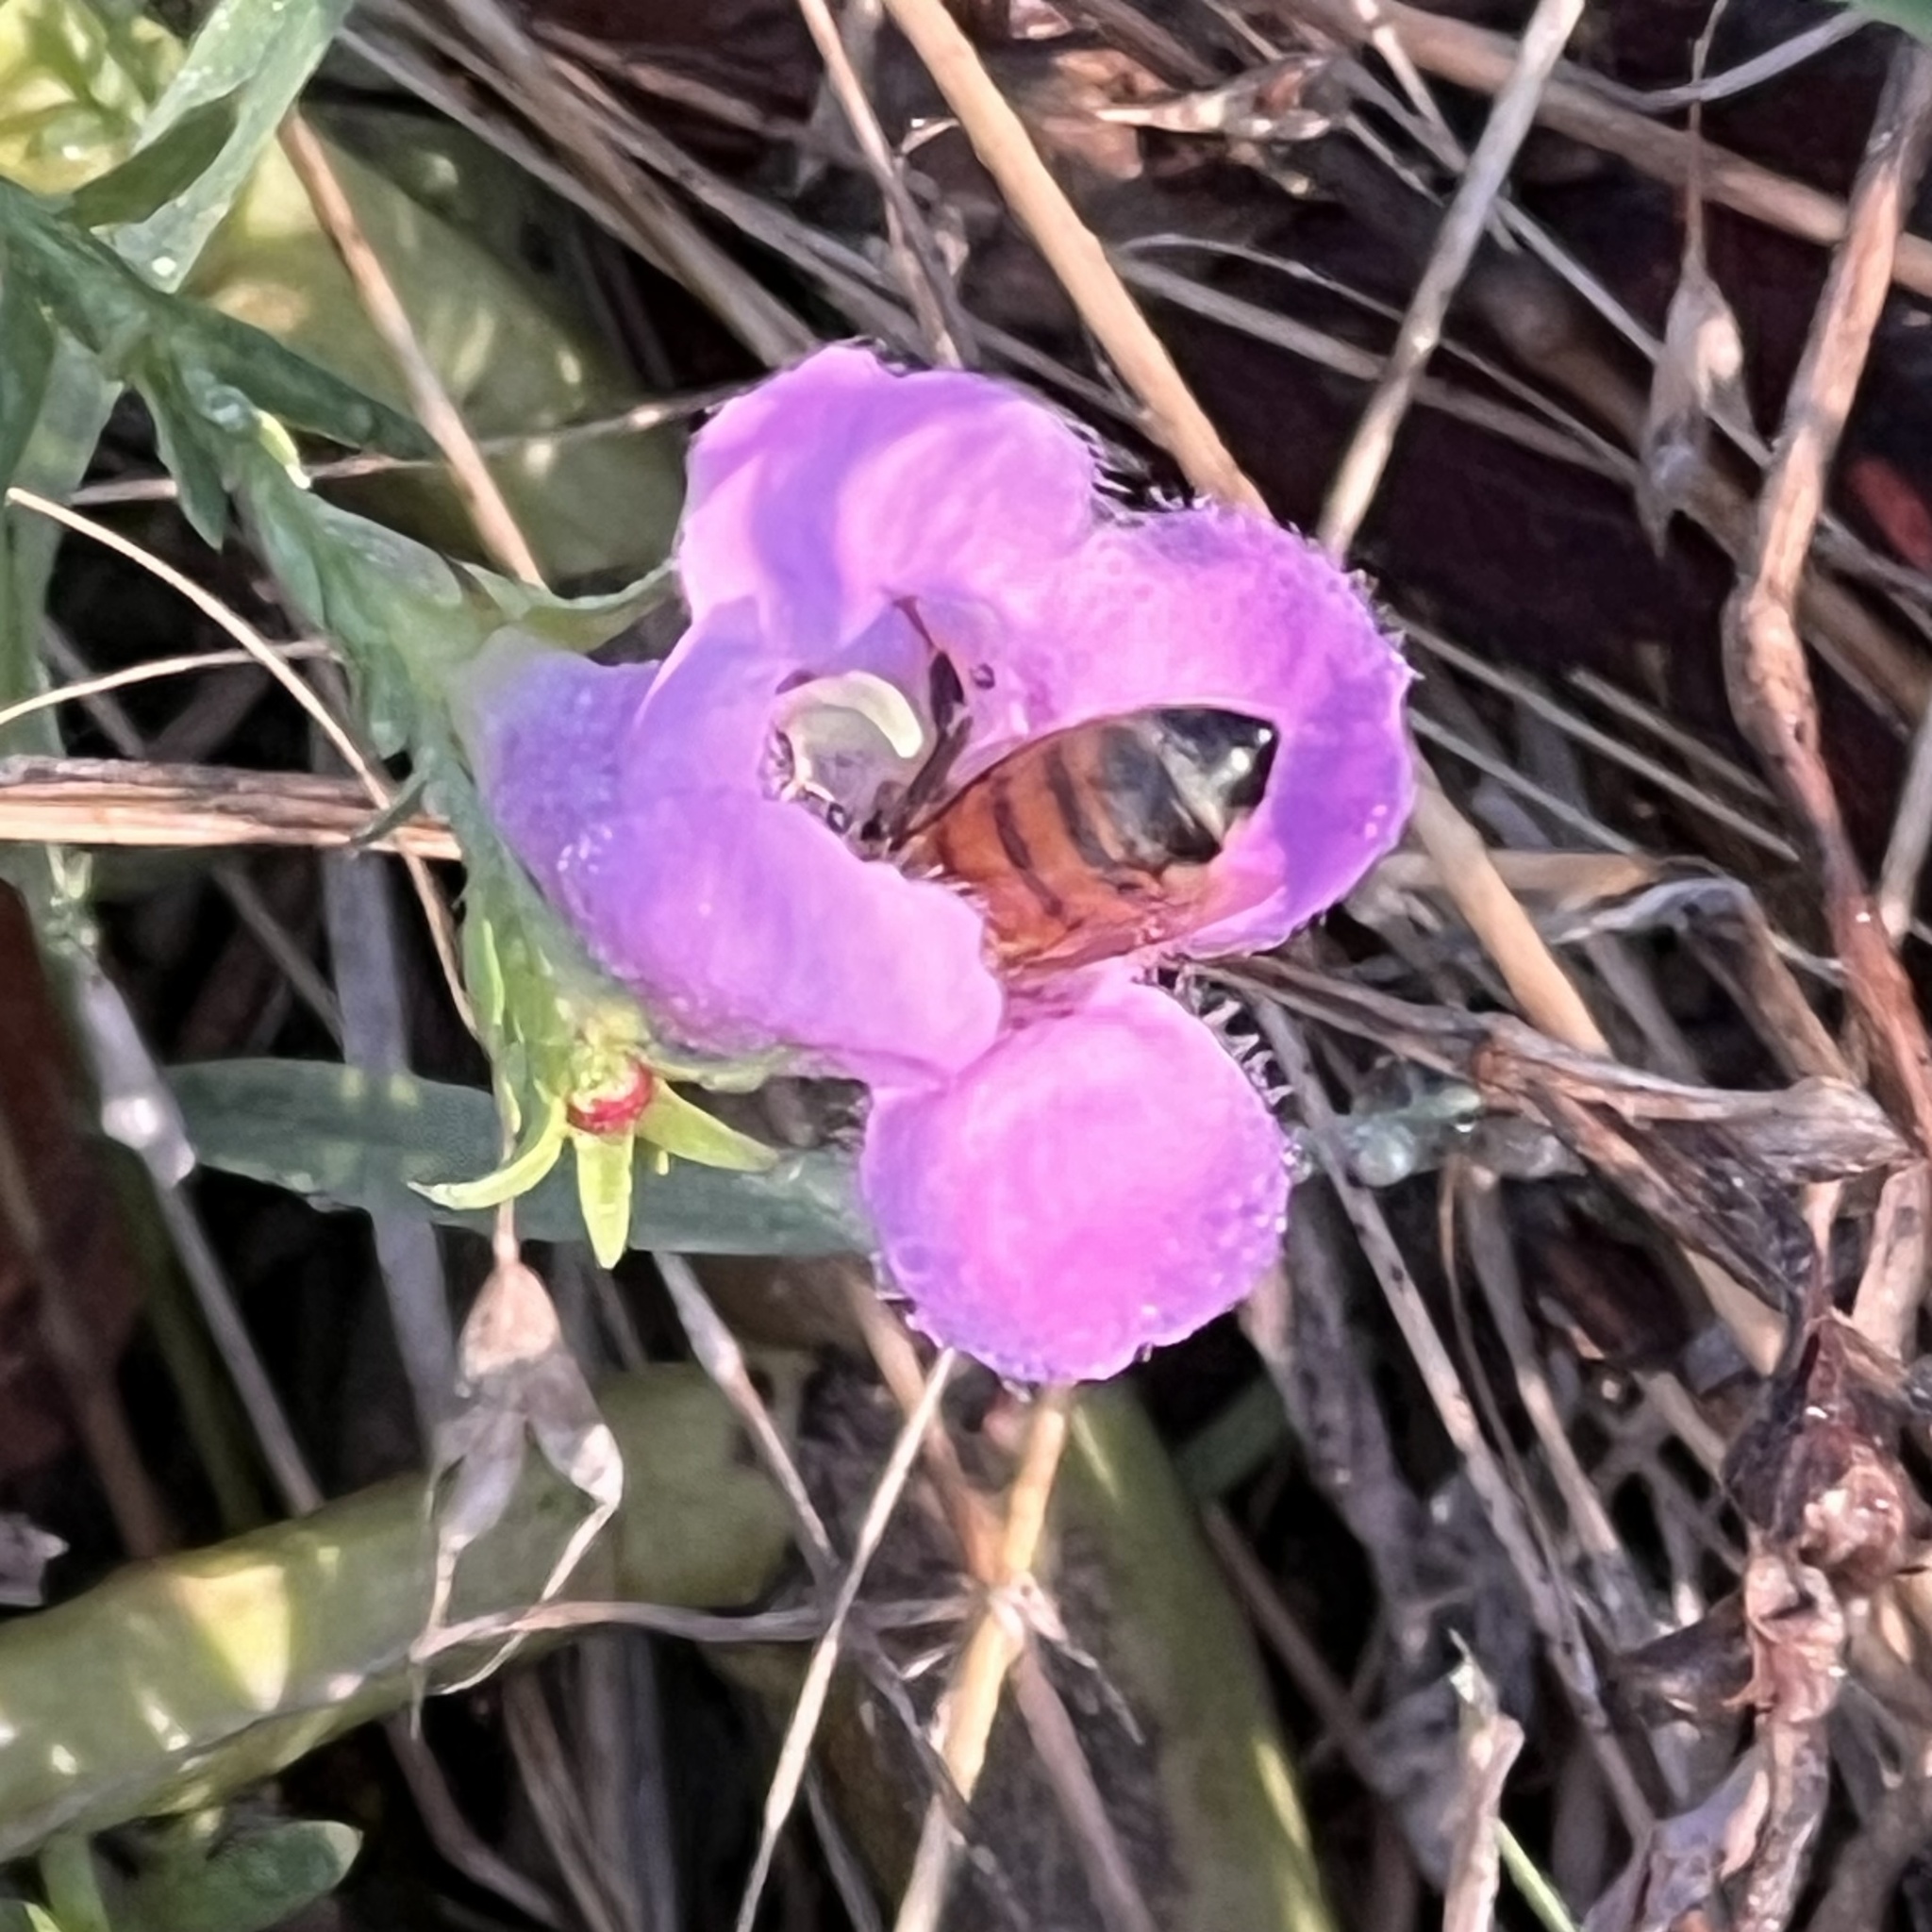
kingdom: Animalia
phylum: Arthropoda
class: Insecta
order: Hymenoptera
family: Apidae
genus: Apis
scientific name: Apis mellifera
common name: Honey bee
